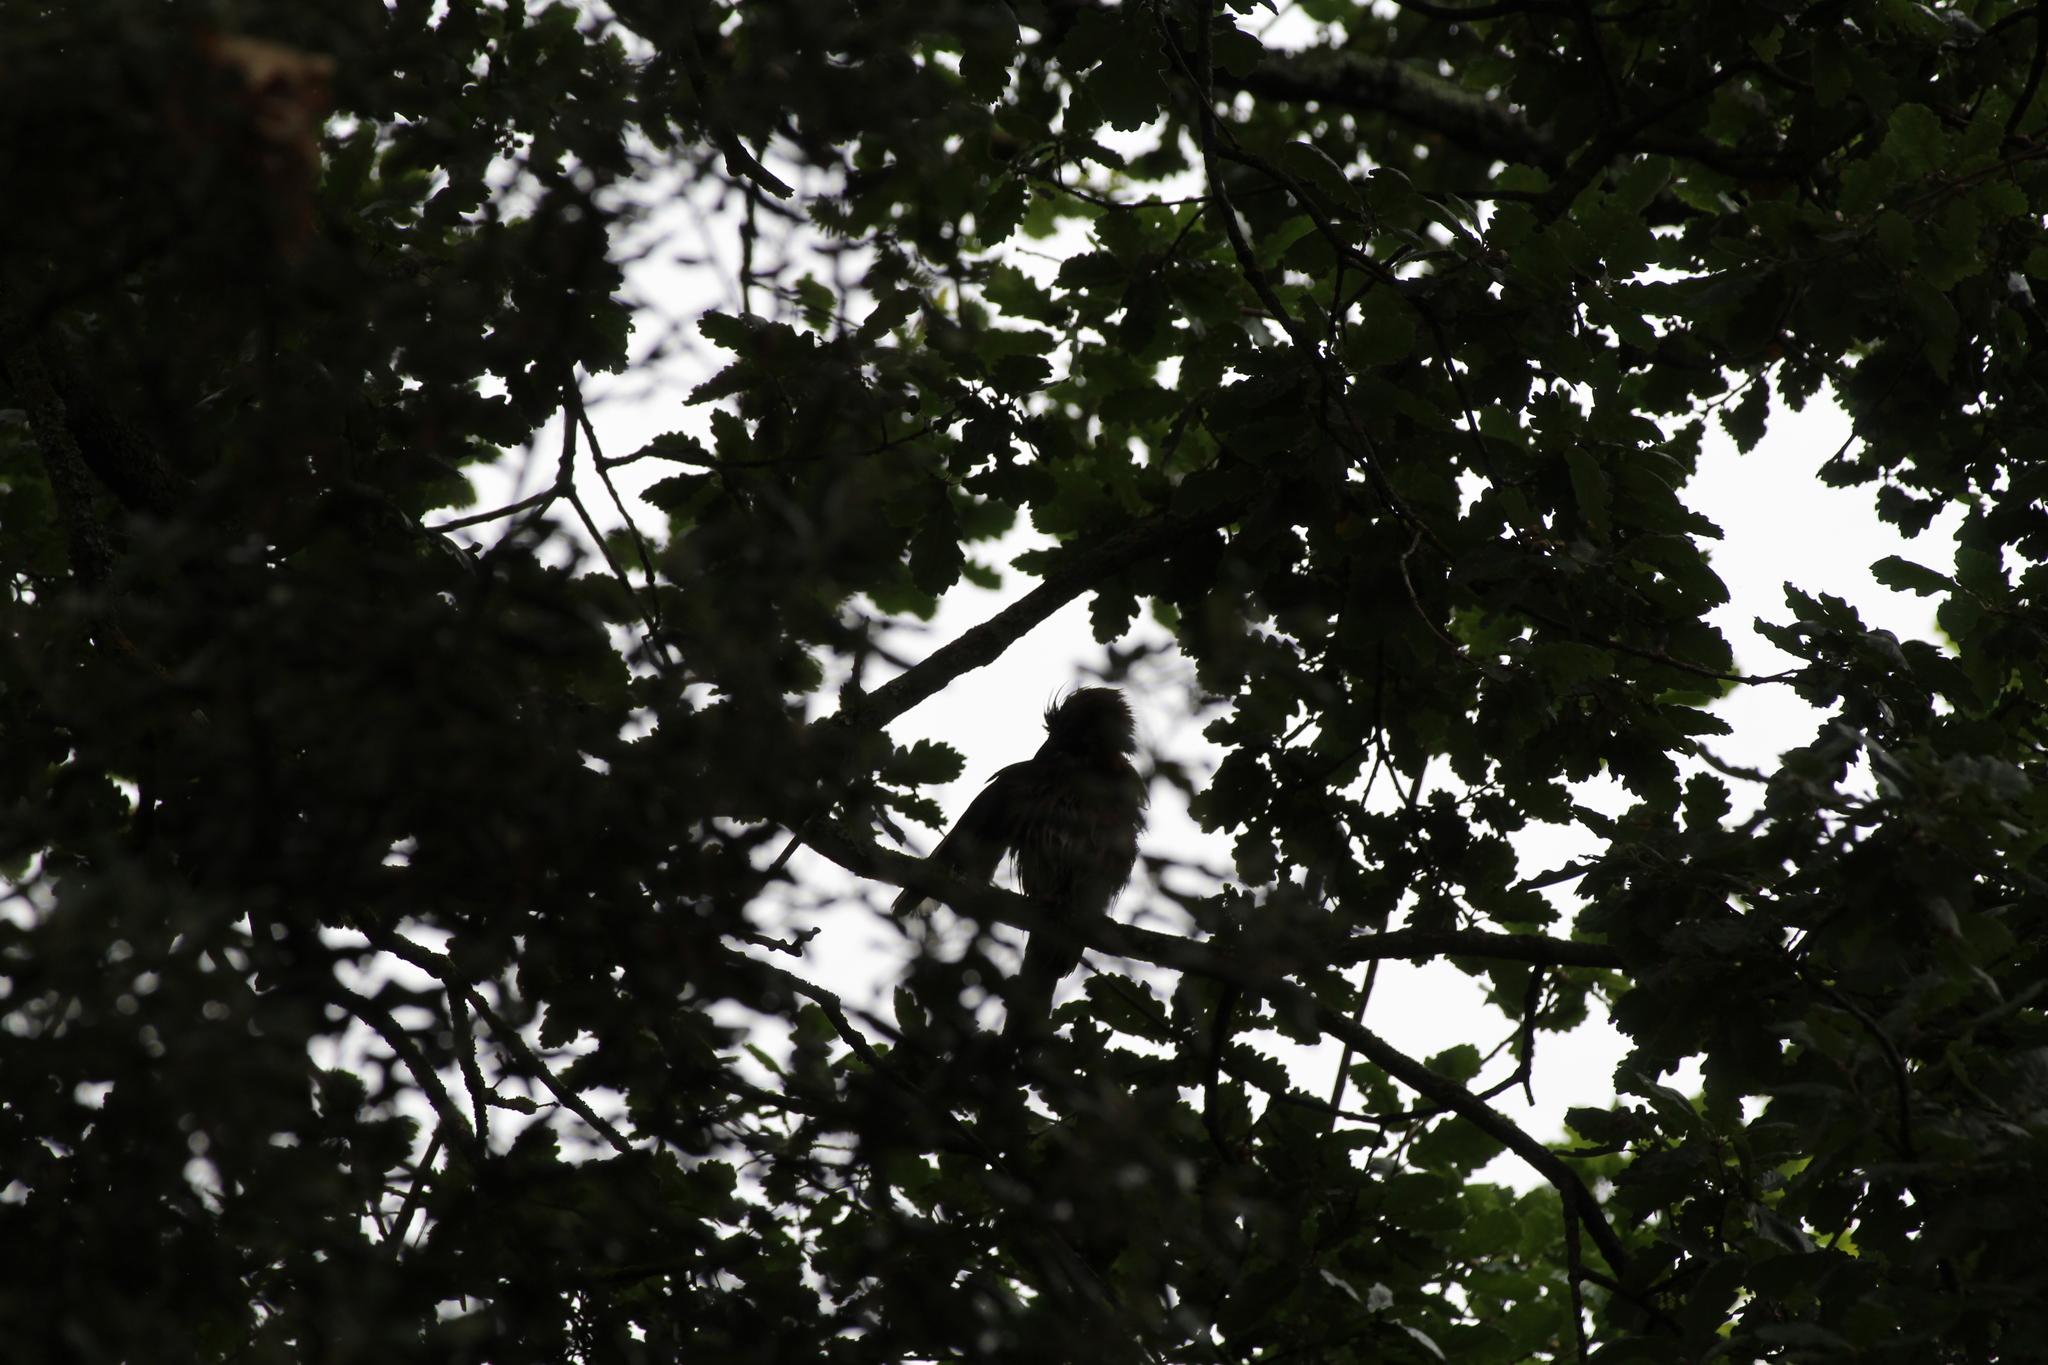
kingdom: Animalia
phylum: Chordata
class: Aves
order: Passeriformes
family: Corvidae
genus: Garrulus
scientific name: Garrulus glandarius
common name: Eurasian jay
